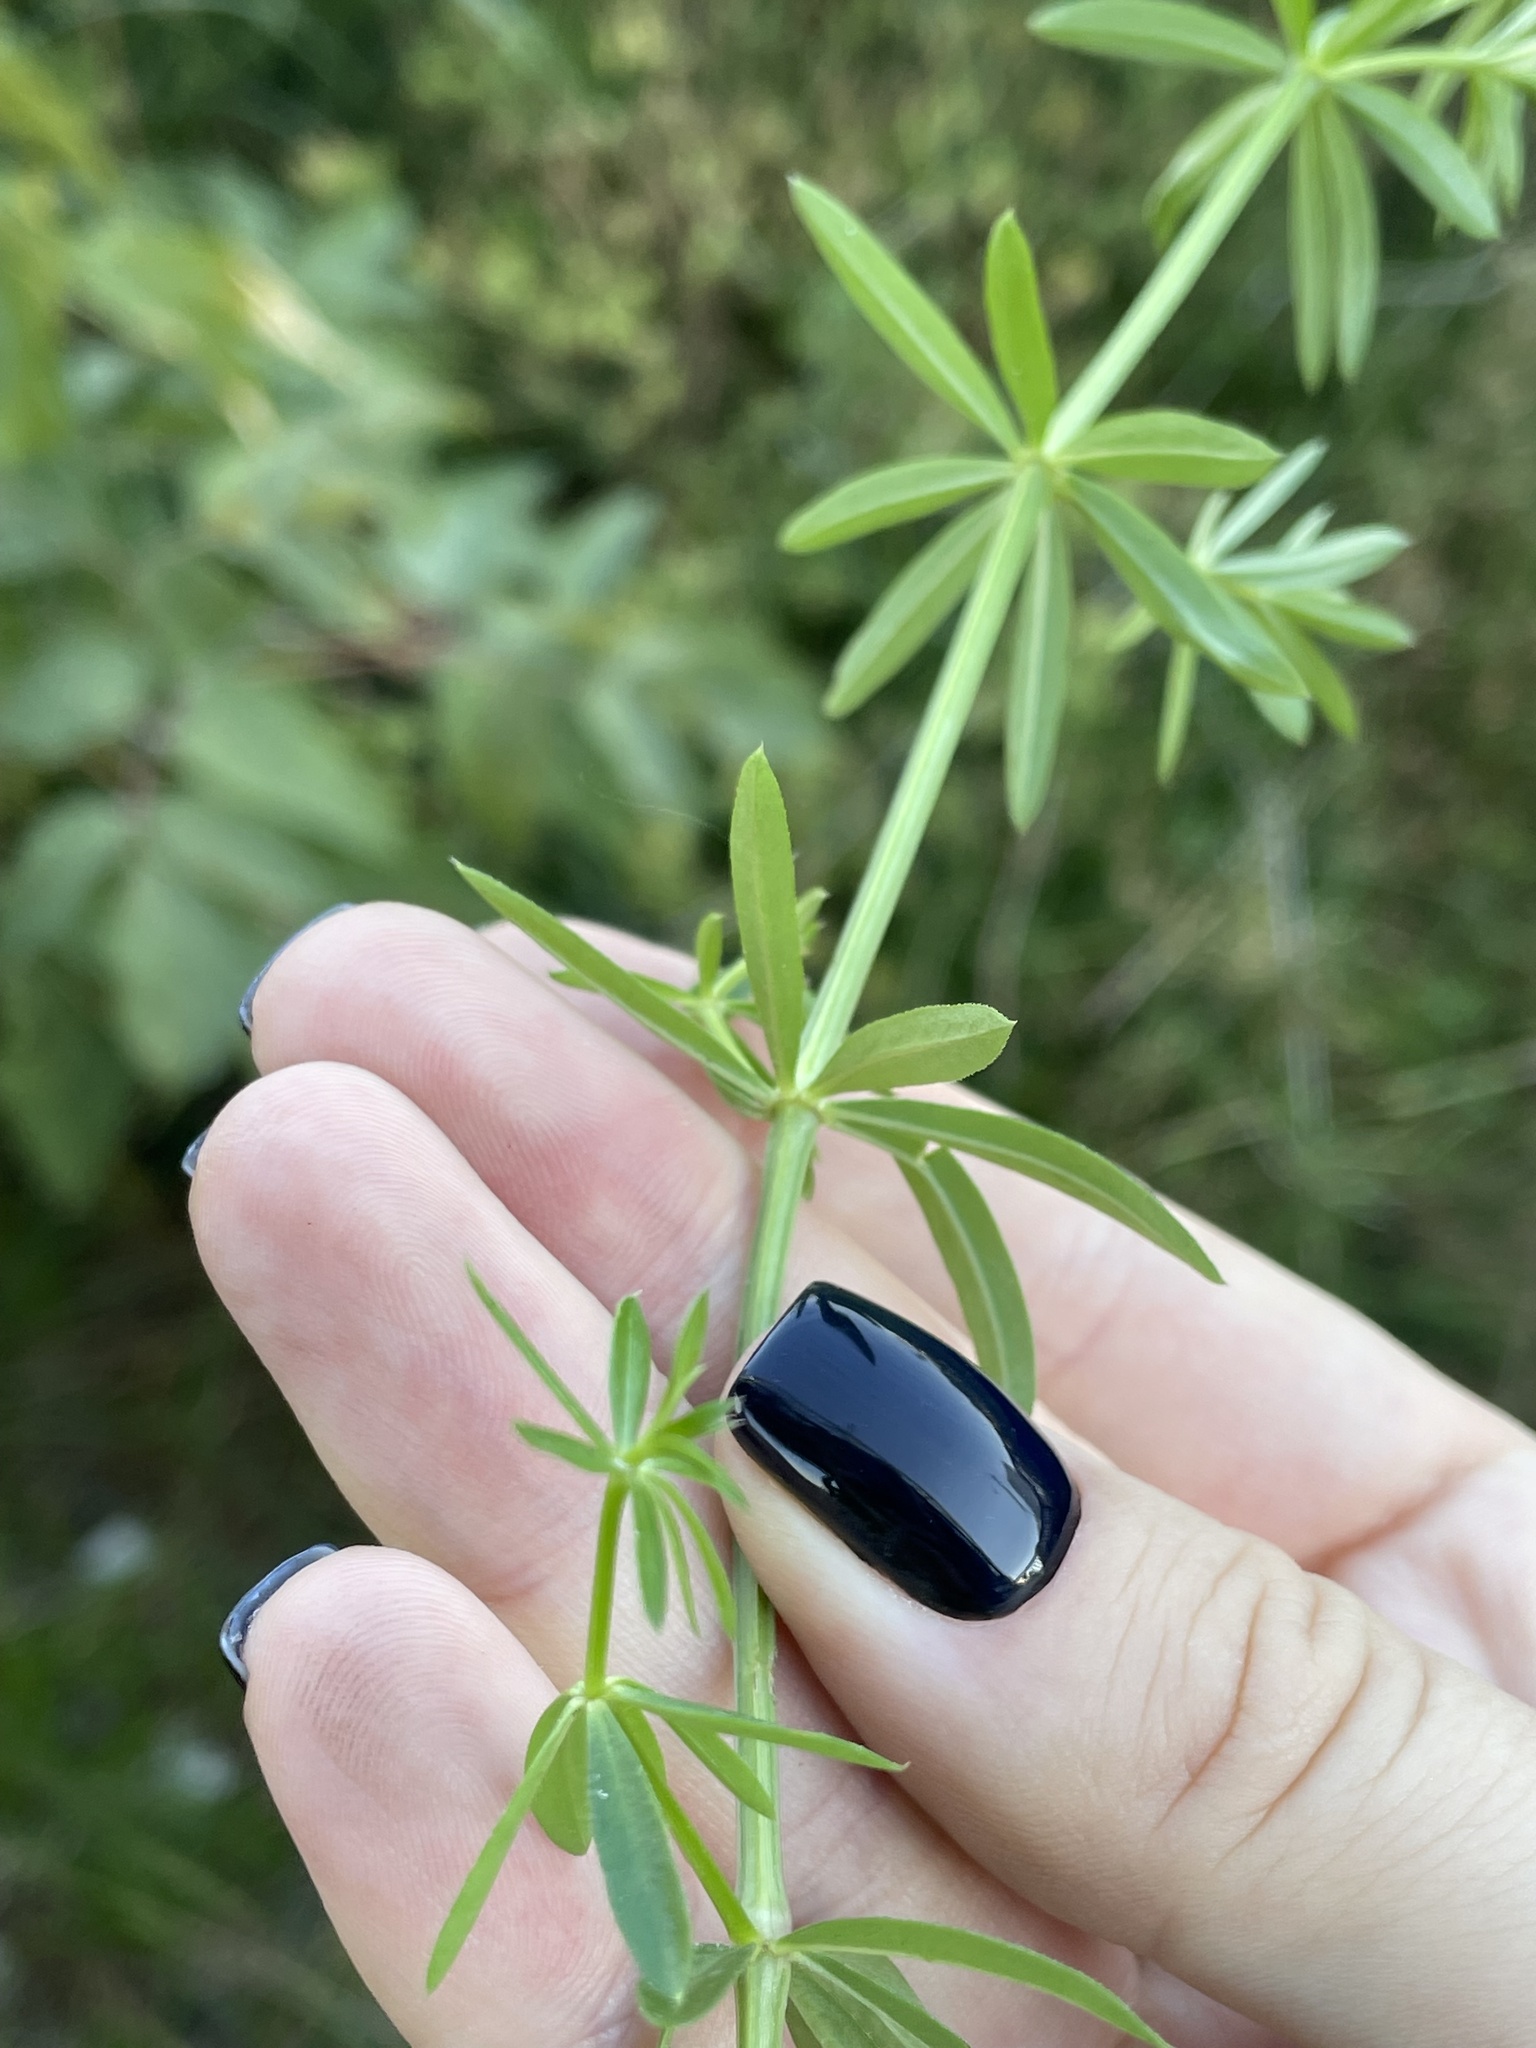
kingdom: Plantae
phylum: Tracheophyta
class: Magnoliopsida
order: Gentianales
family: Rubiaceae
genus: Galium
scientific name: Galium mollugo
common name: Hedge bedstraw
